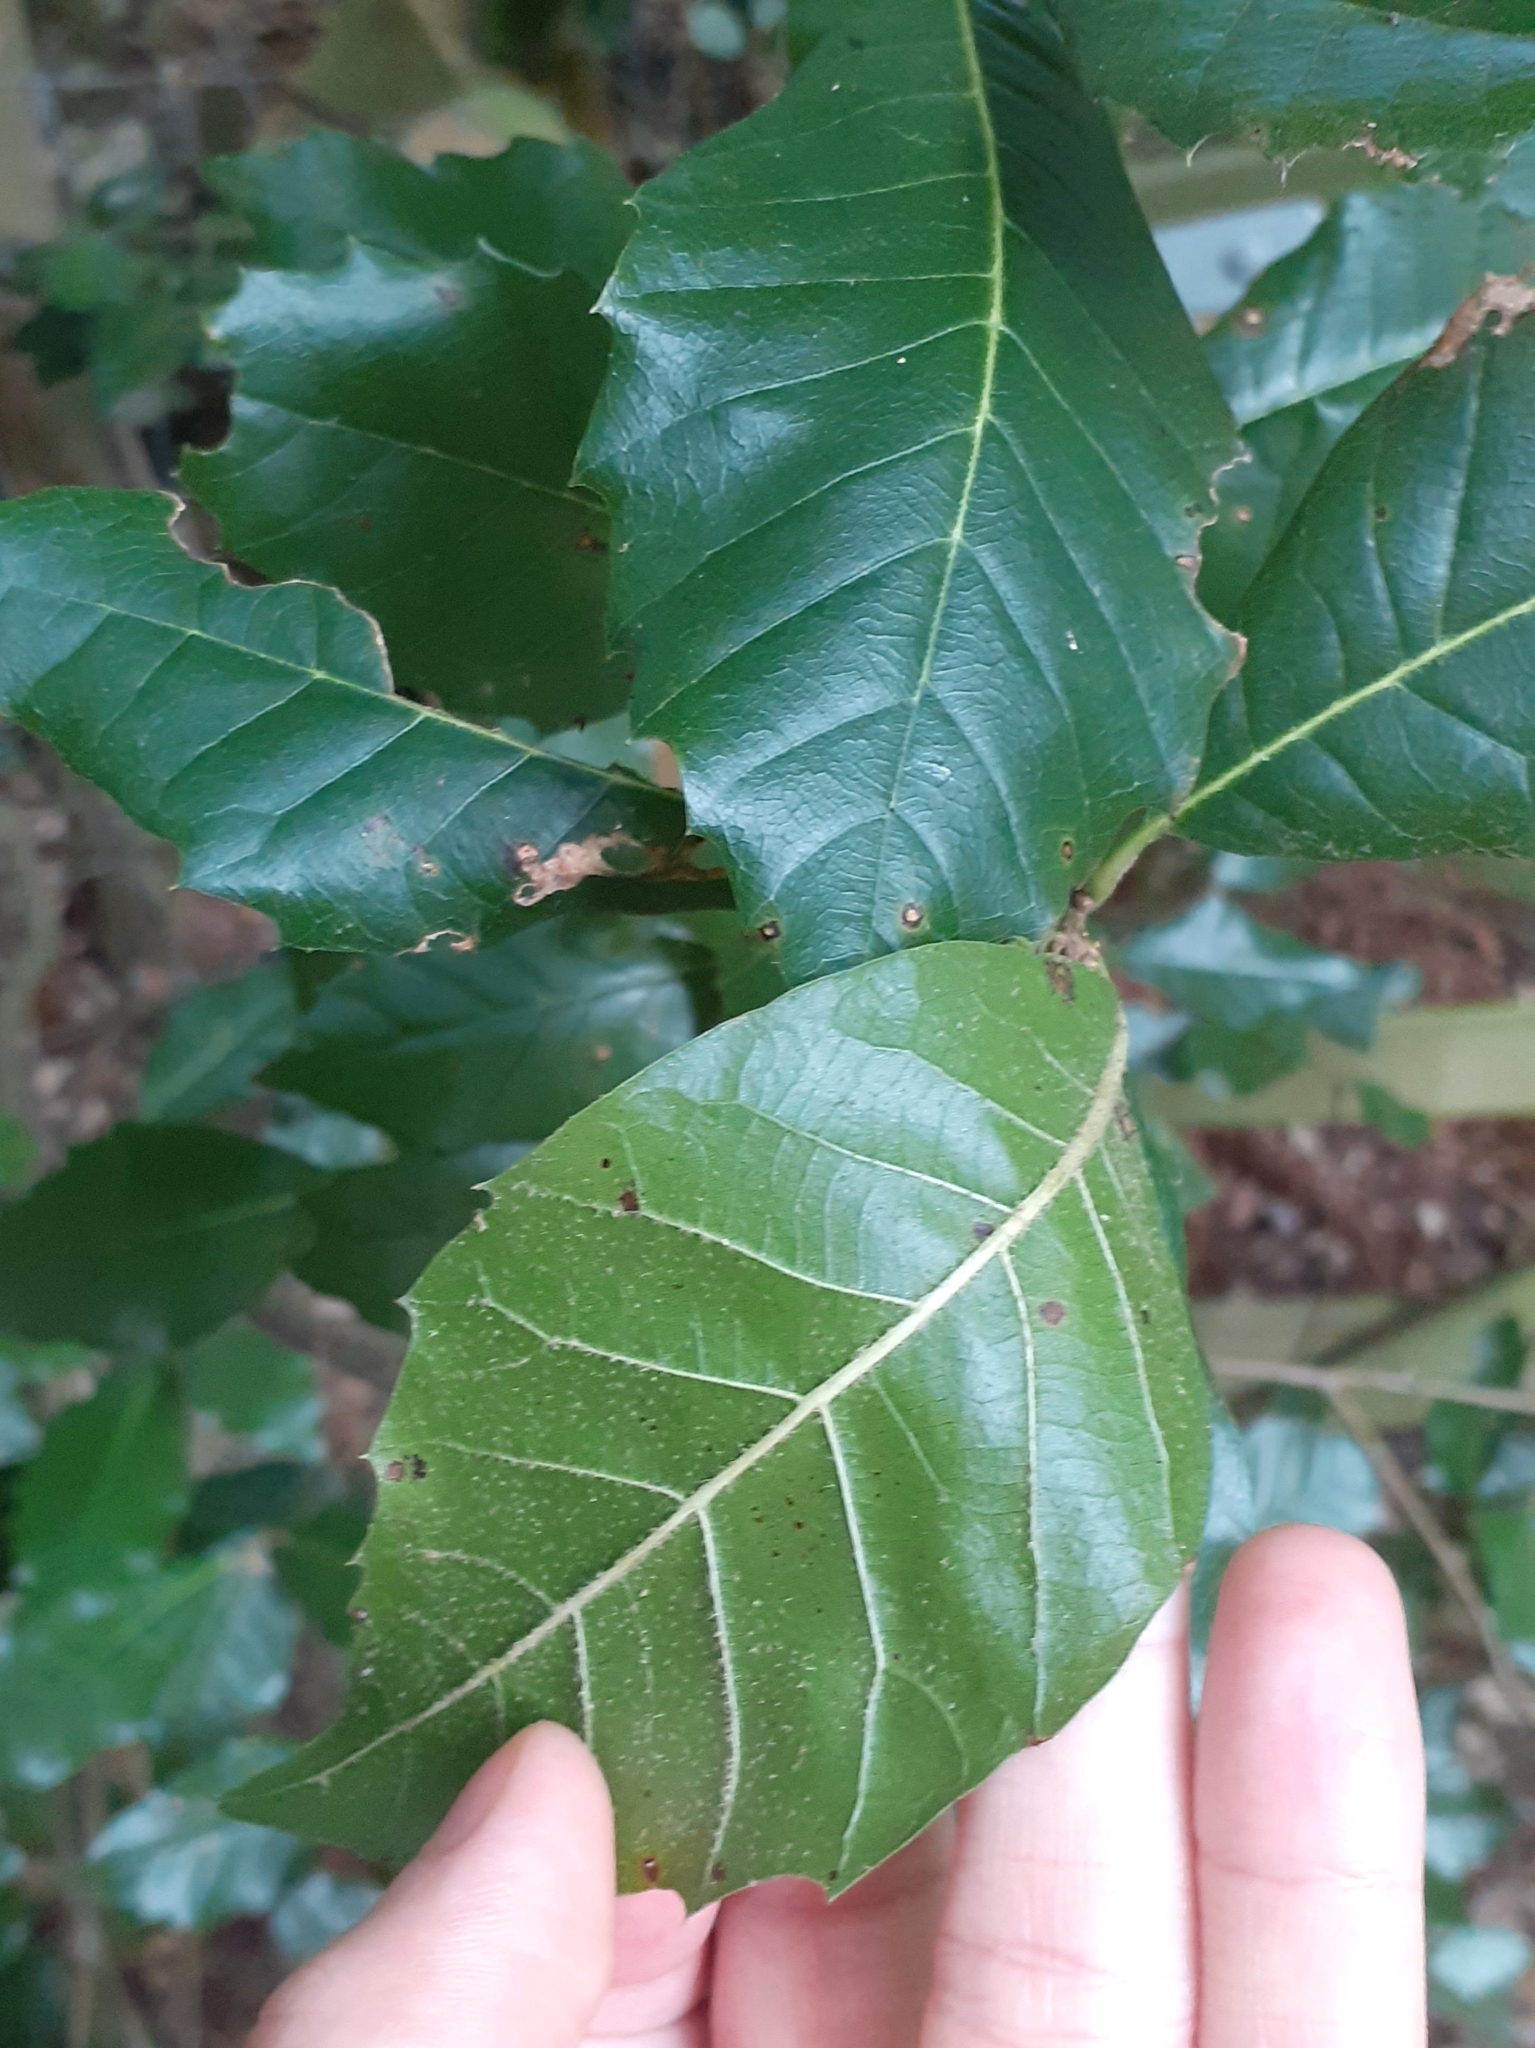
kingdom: Plantae
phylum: Tracheophyta
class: Magnoliopsida
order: Fagales
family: Fagaceae
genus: Quercus
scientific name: Quercus ilex
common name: Evergreen oak
